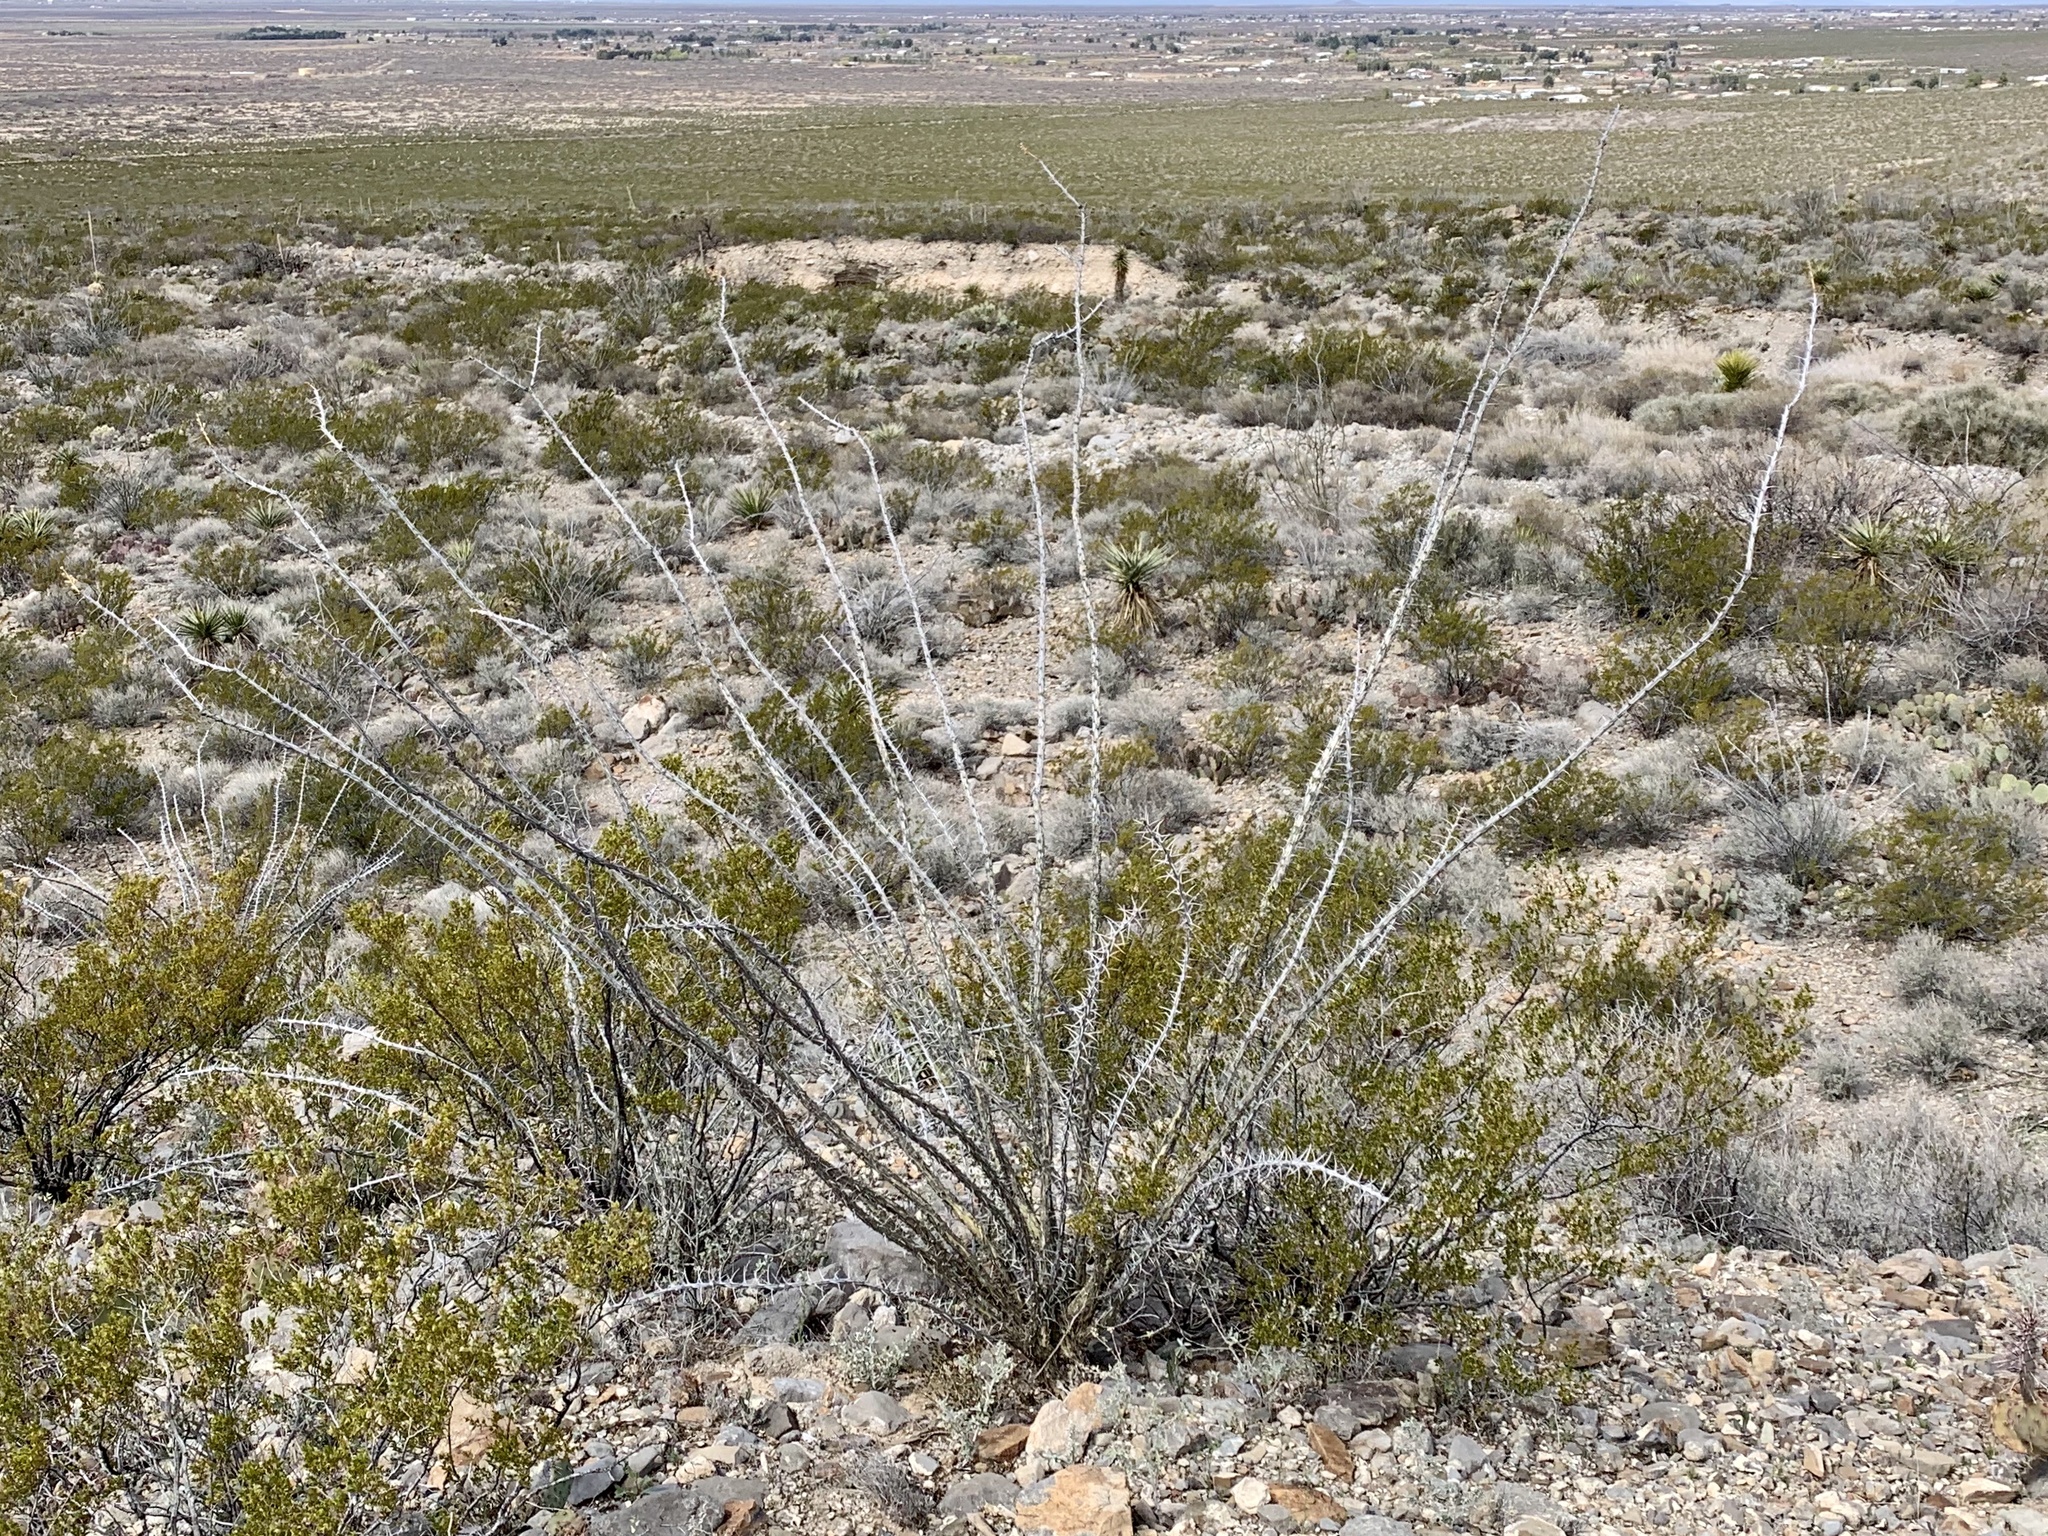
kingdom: Plantae
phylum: Tracheophyta
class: Magnoliopsida
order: Ericales
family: Fouquieriaceae
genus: Fouquieria
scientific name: Fouquieria splendens
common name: Vine-cactus
